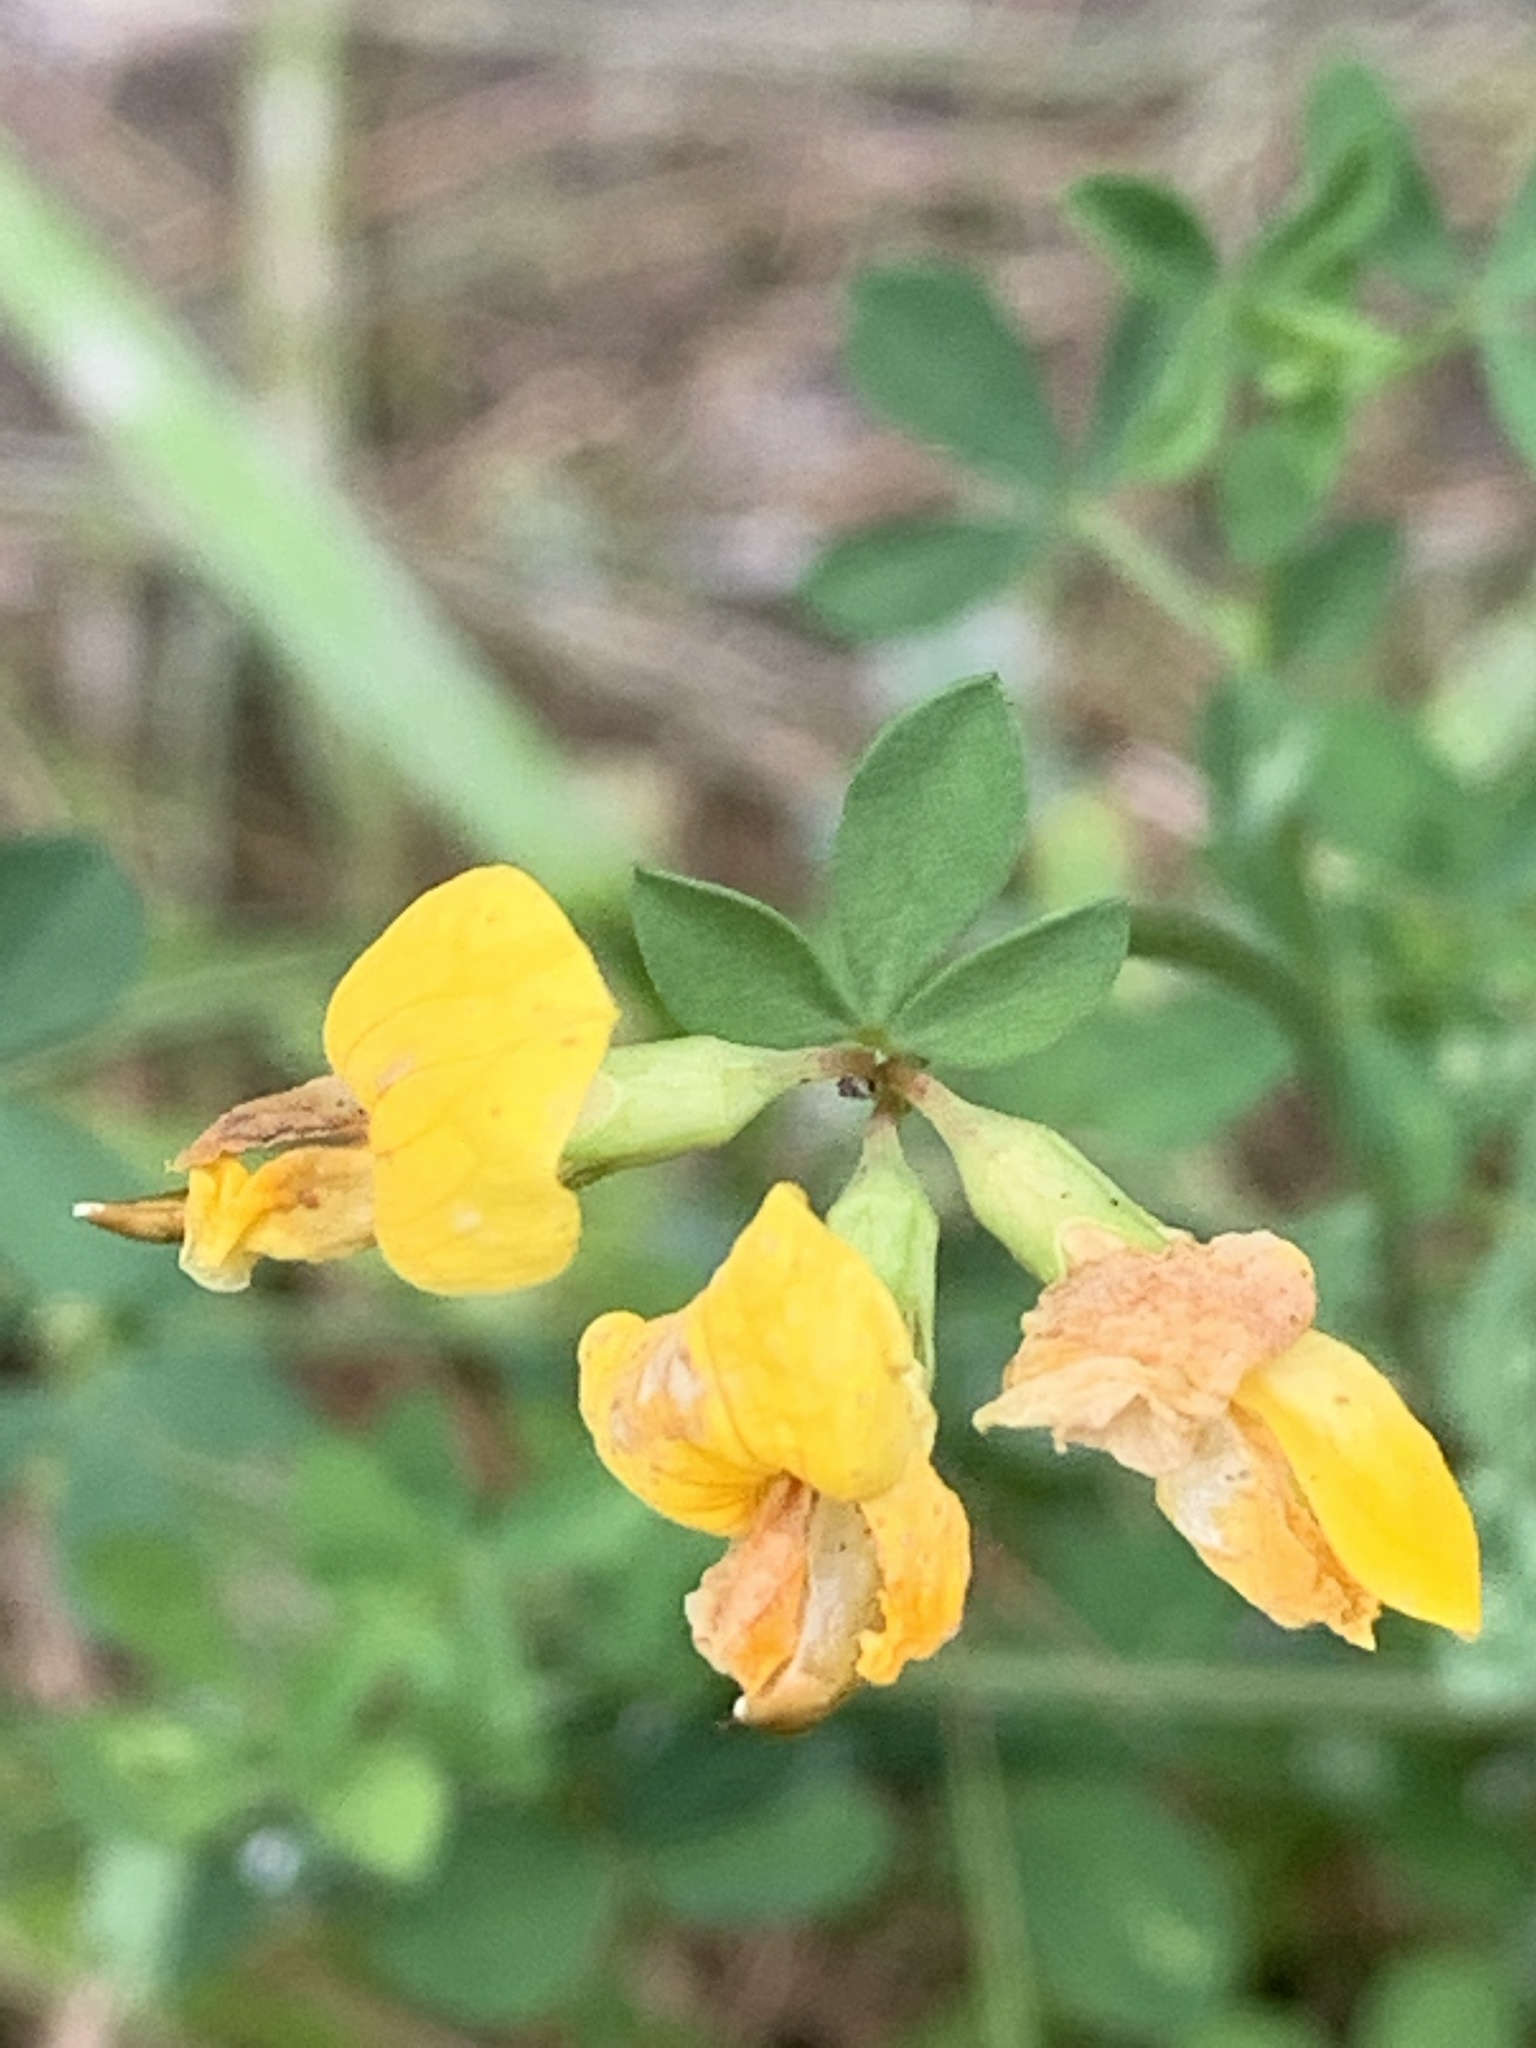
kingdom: Plantae
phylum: Tracheophyta
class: Magnoliopsida
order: Fabales
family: Fabaceae
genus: Lotus
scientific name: Lotus corniculatus
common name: Common bird's-foot-trefoil
